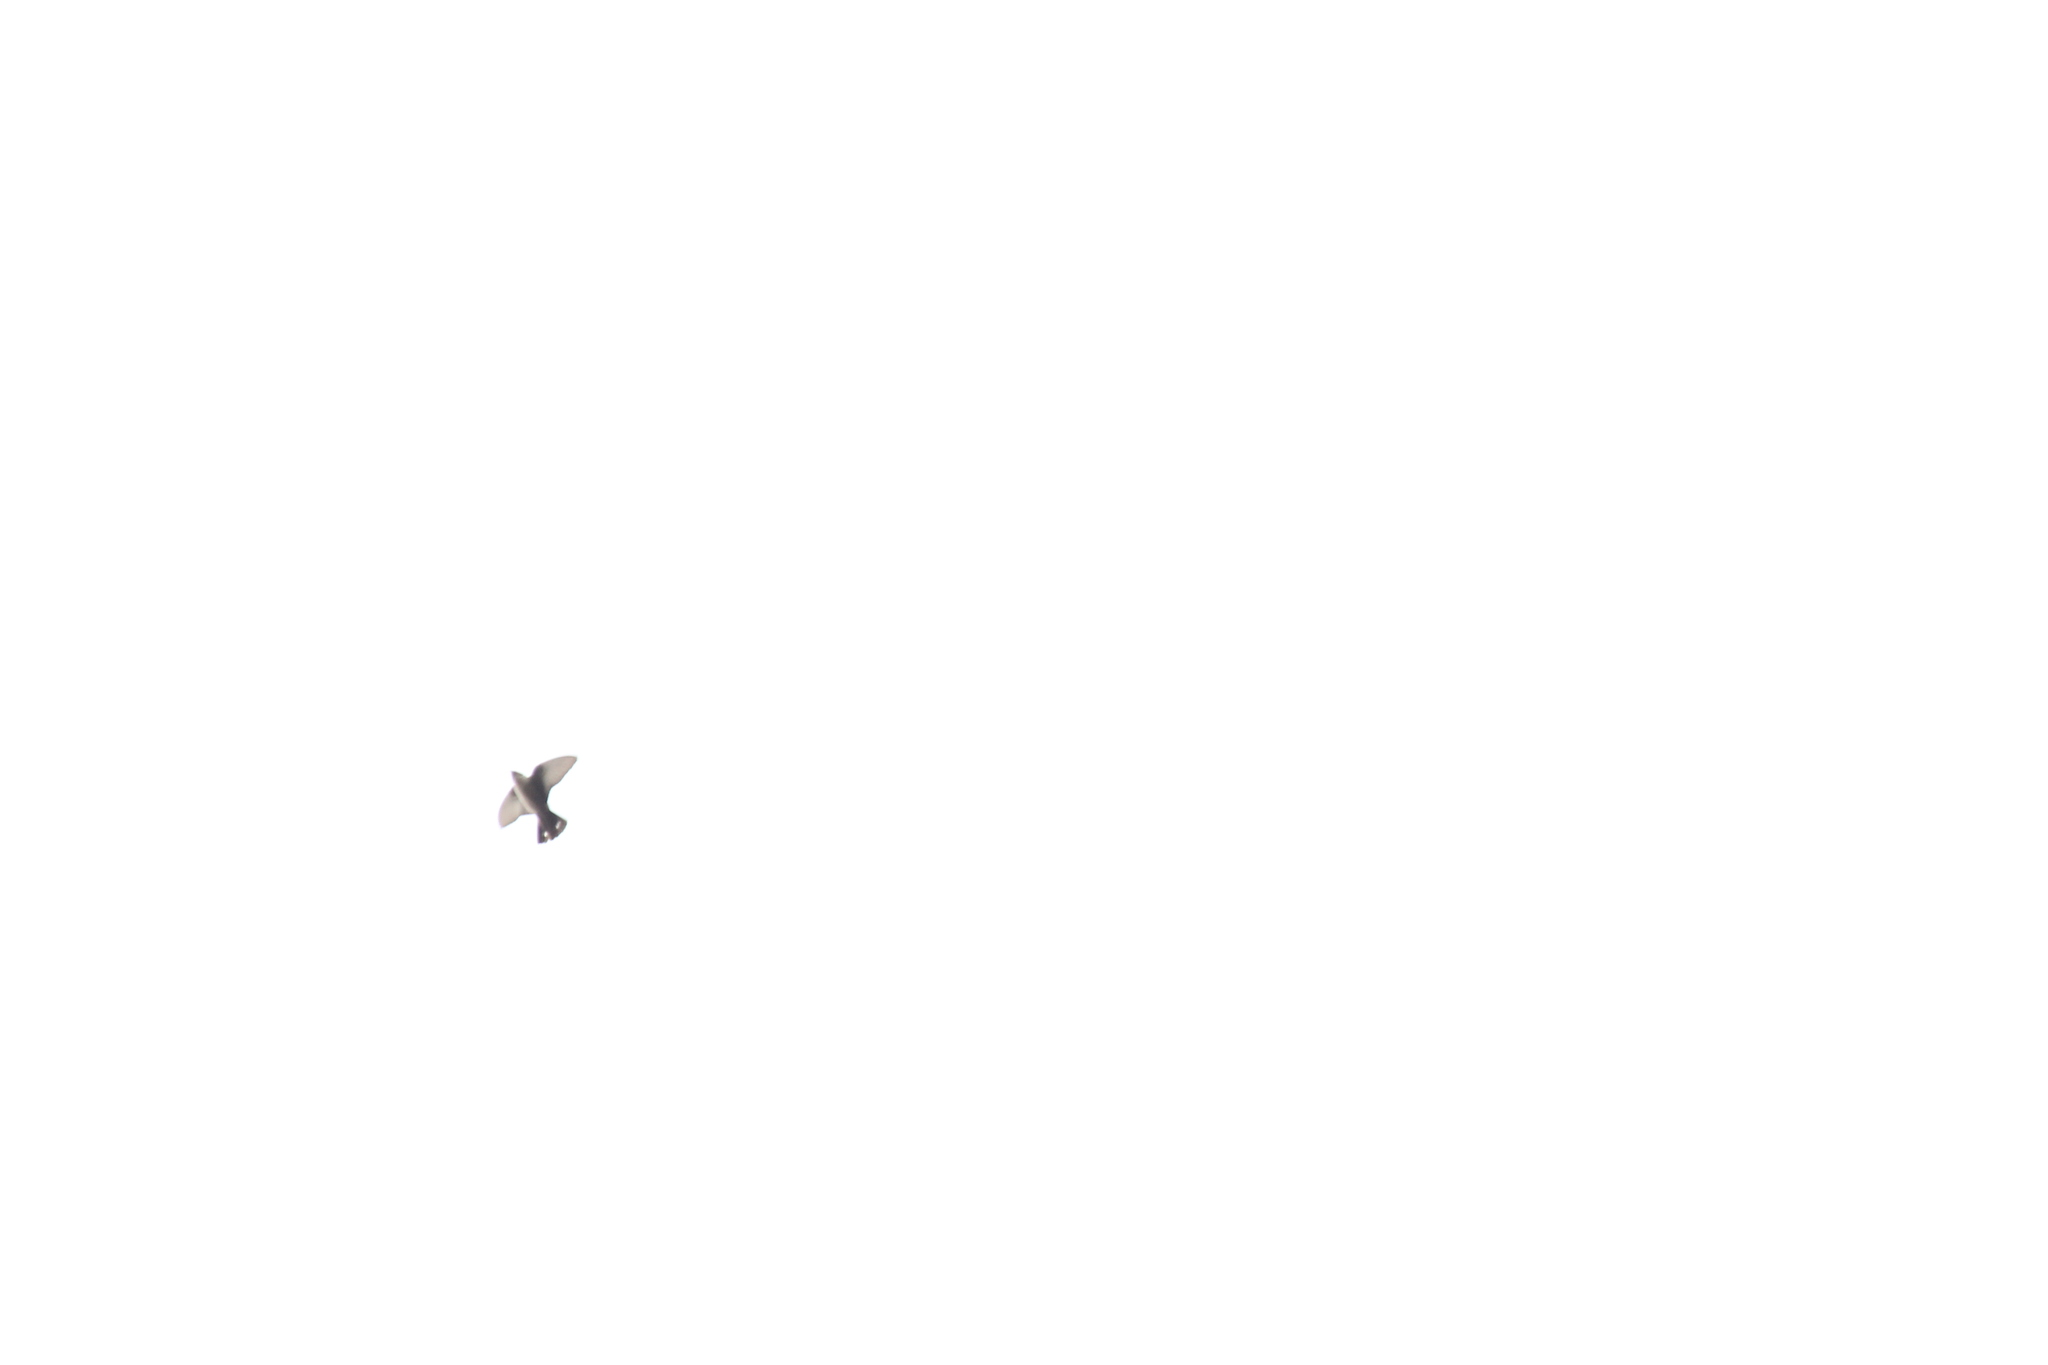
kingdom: Animalia
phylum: Chordata
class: Aves
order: Passeriformes
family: Hirundinidae
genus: Ptyonoprogne
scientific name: Ptyonoprogne rupestris
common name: Eurasian crag martin
